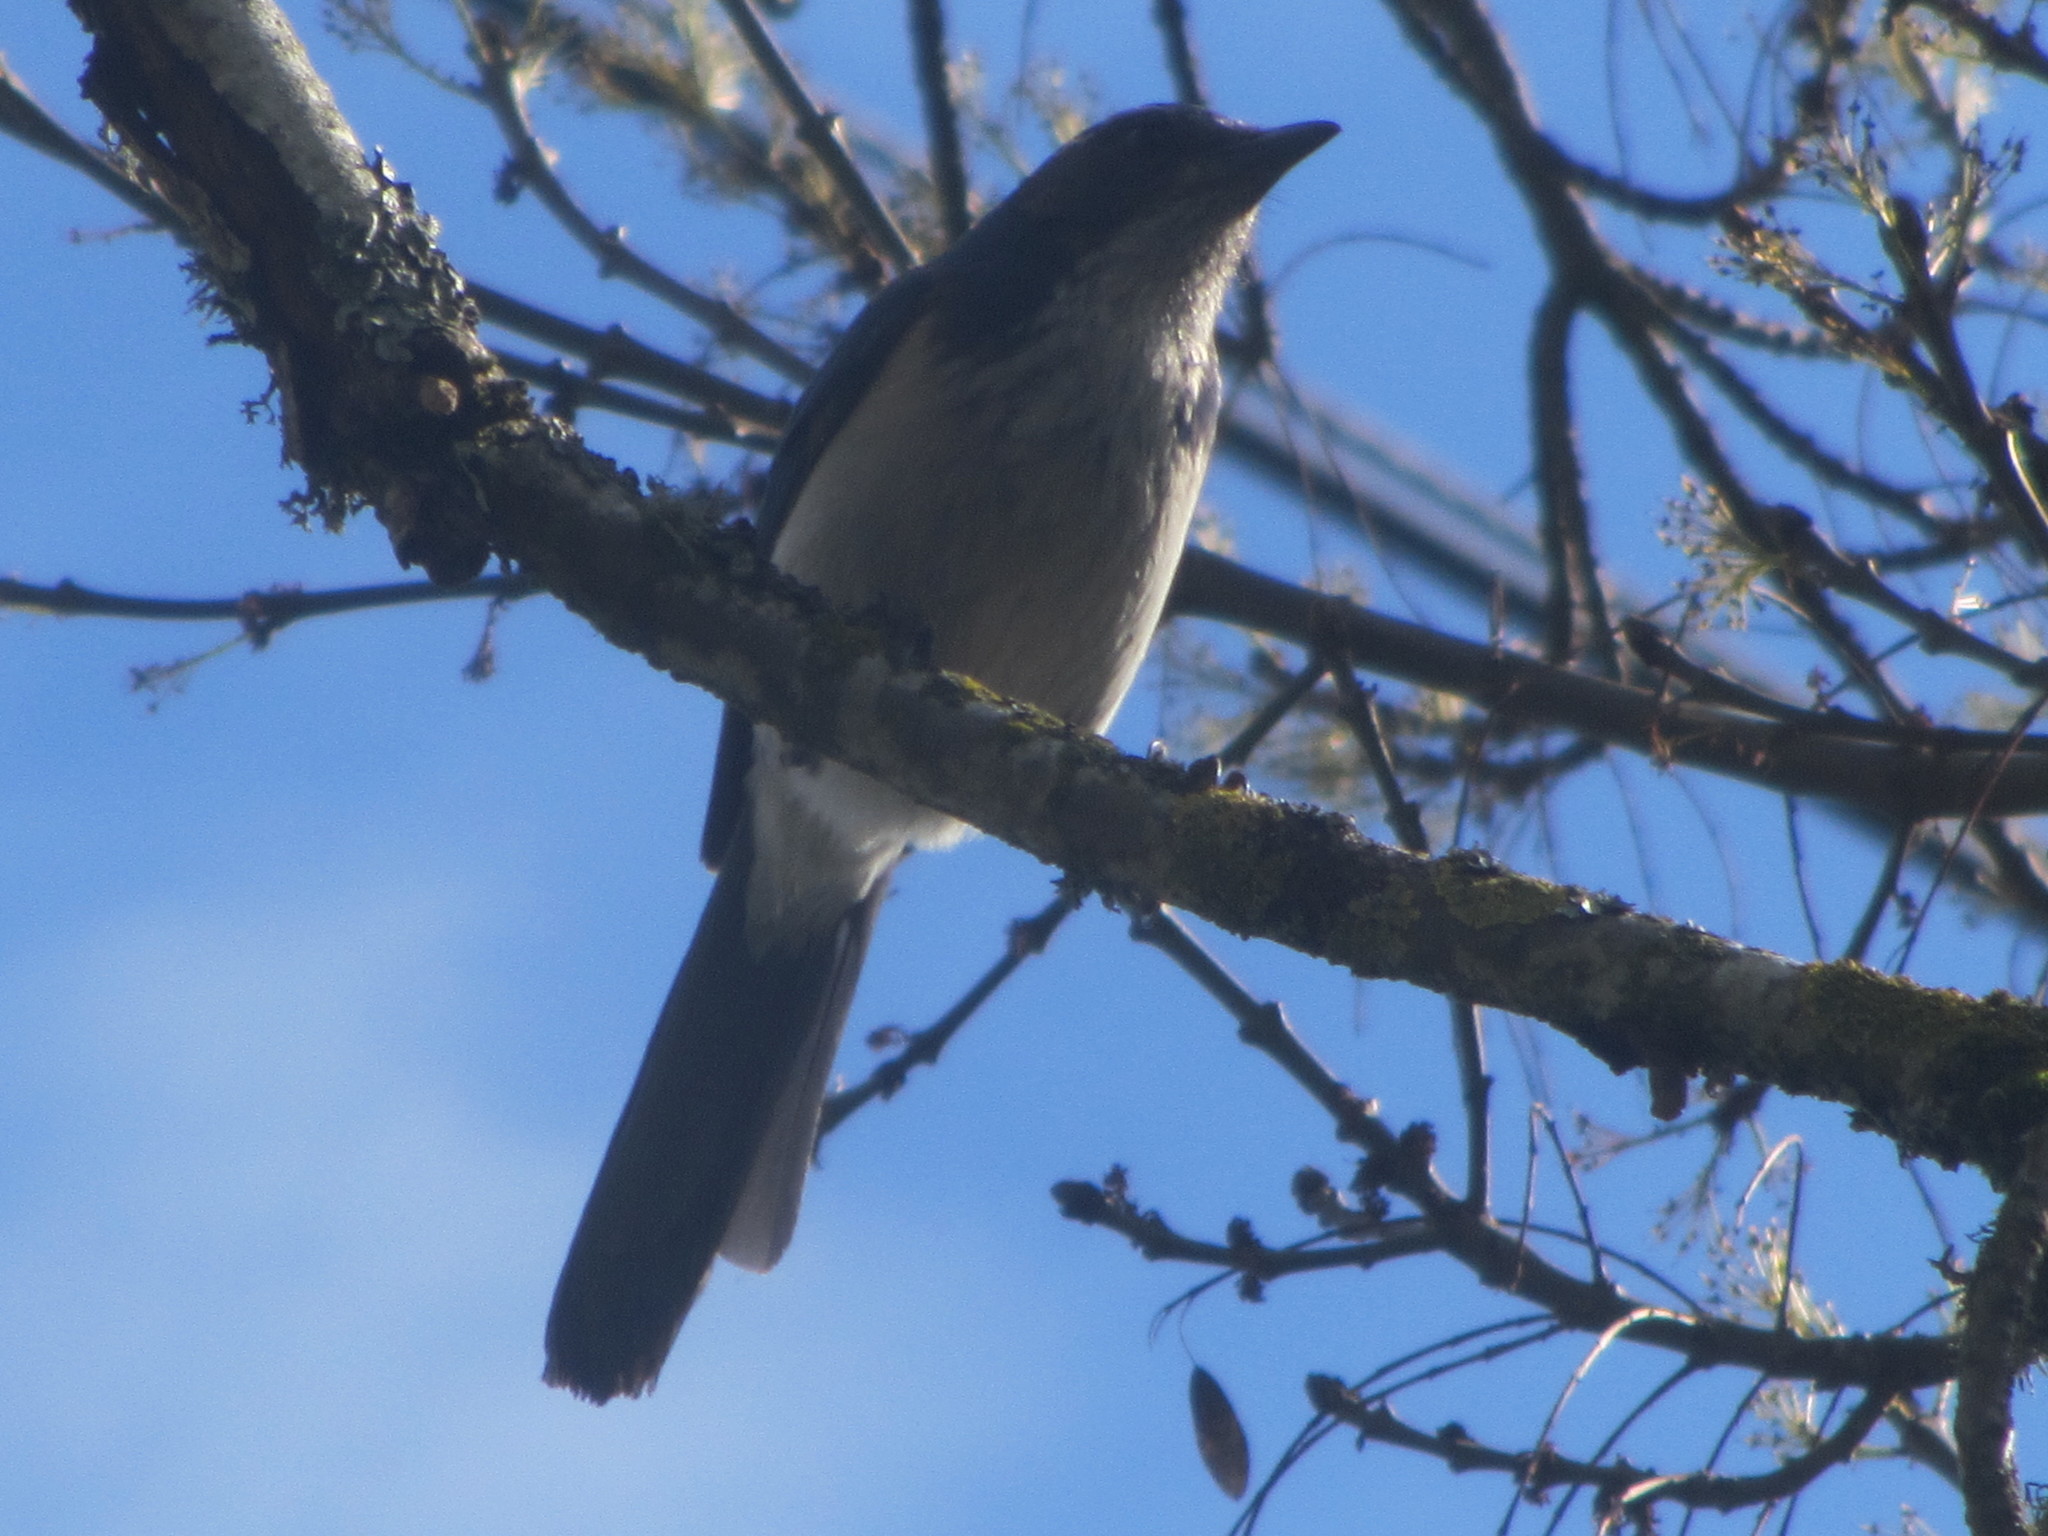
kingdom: Animalia
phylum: Chordata
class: Aves
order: Passeriformes
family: Corvidae
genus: Aphelocoma
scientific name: Aphelocoma californica
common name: California scrub-jay
